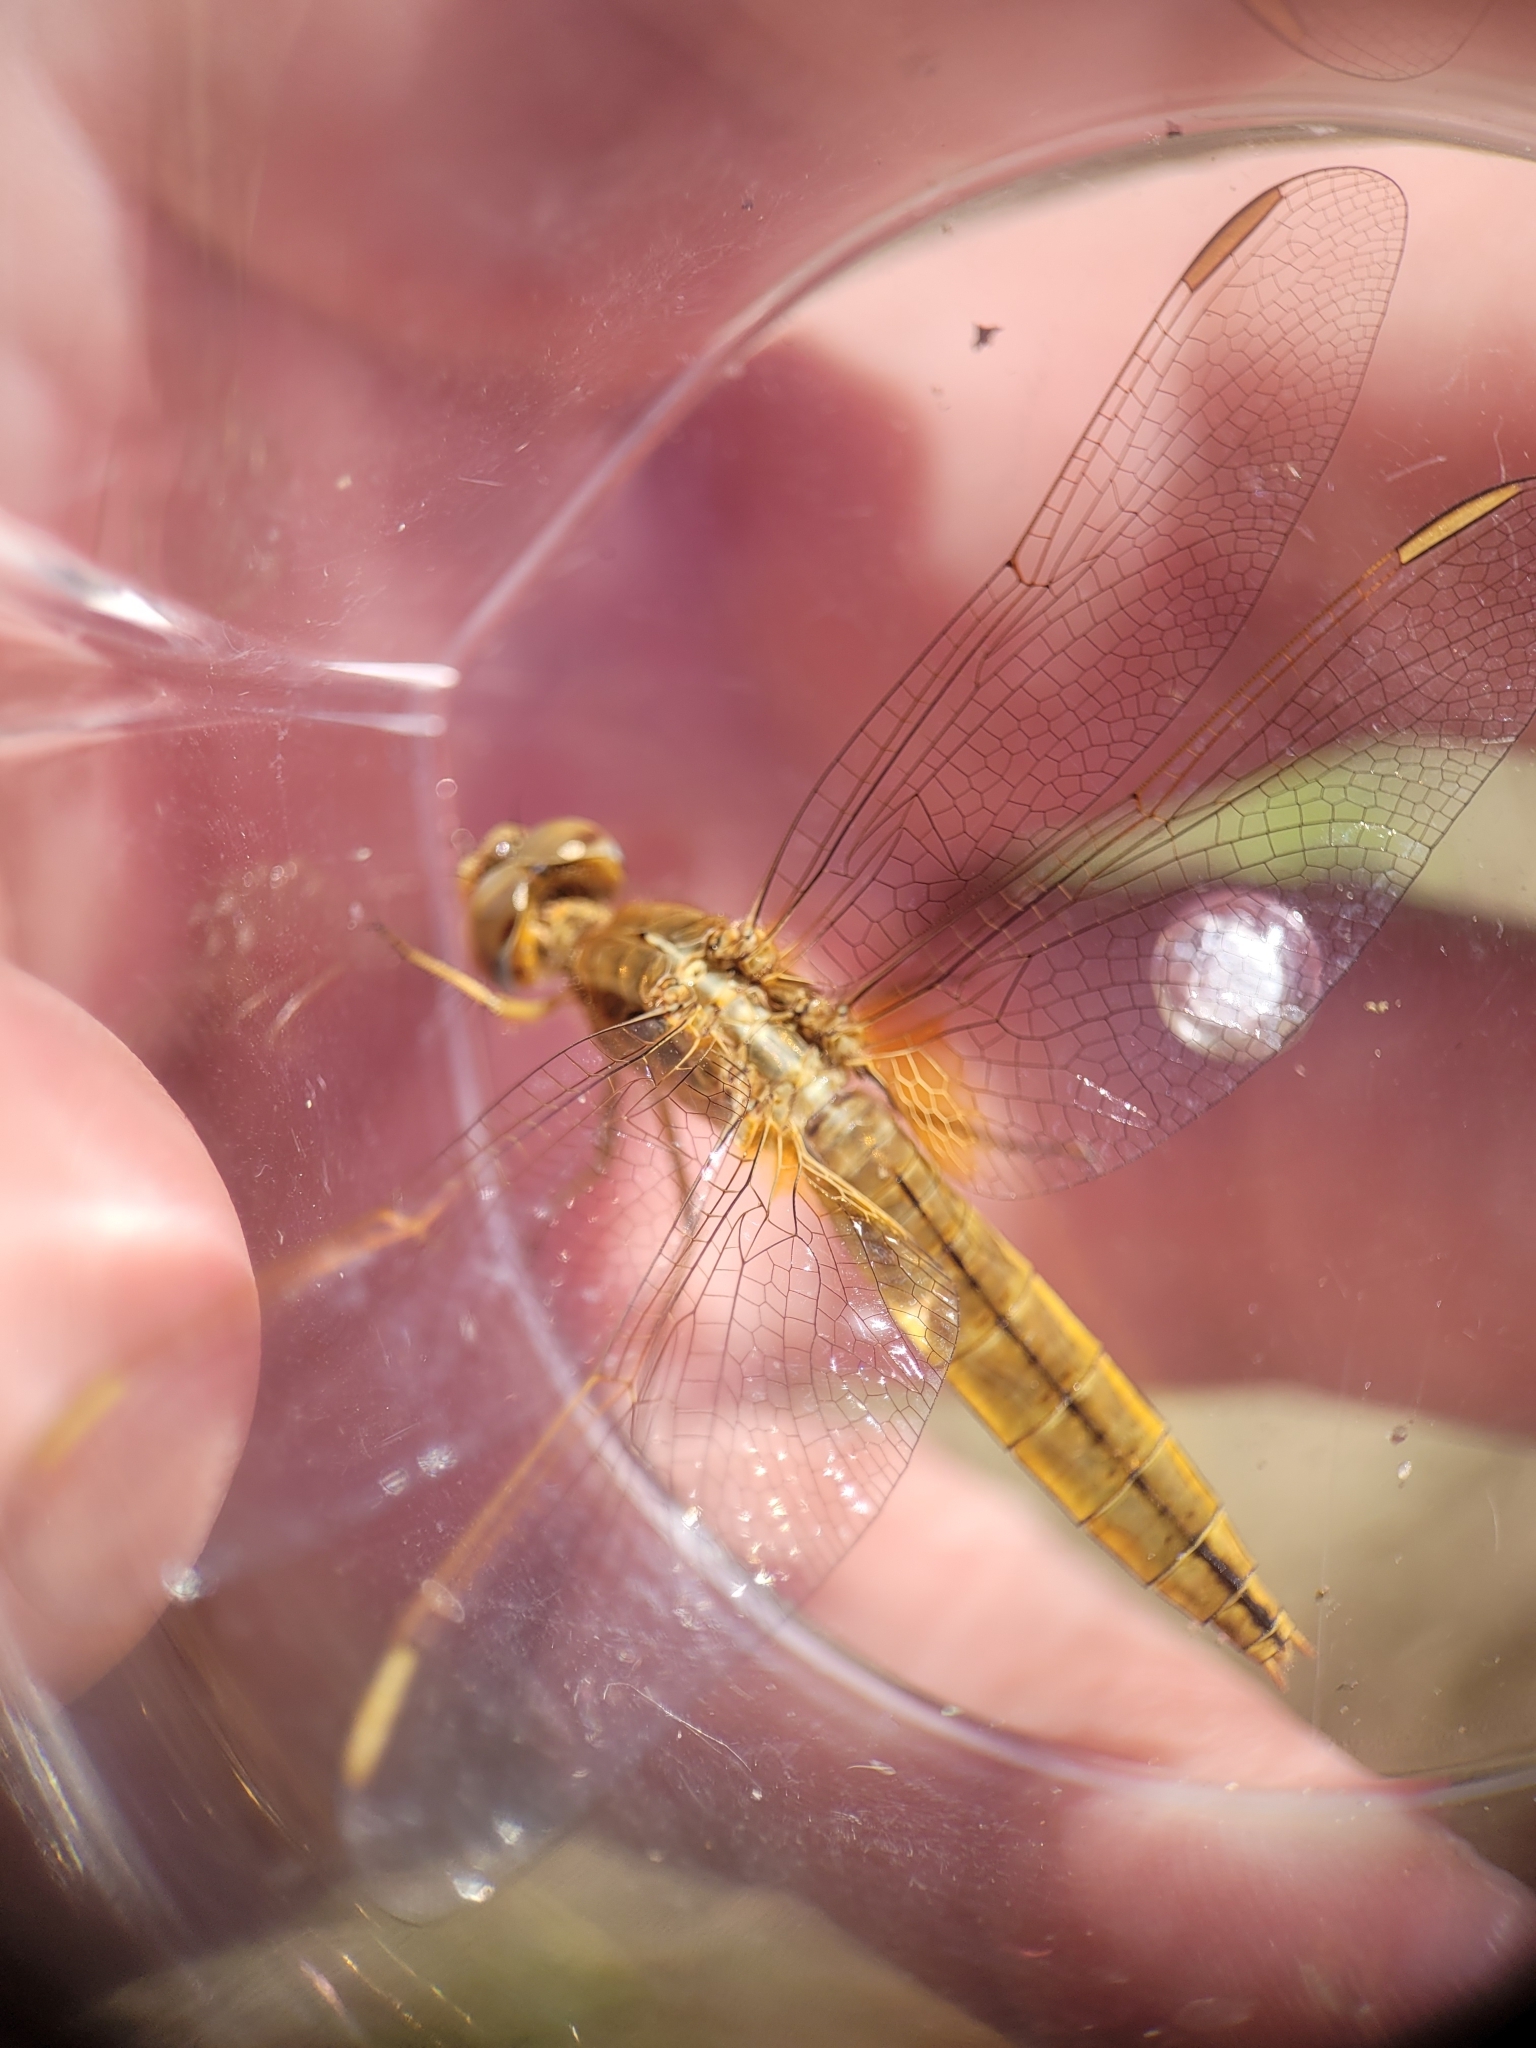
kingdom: Animalia
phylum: Arthropoda
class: Insecta
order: Odonata
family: Libellulidae
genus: Crocothemis
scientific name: Crocothemis erythraea
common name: Scarlet dragonfly
